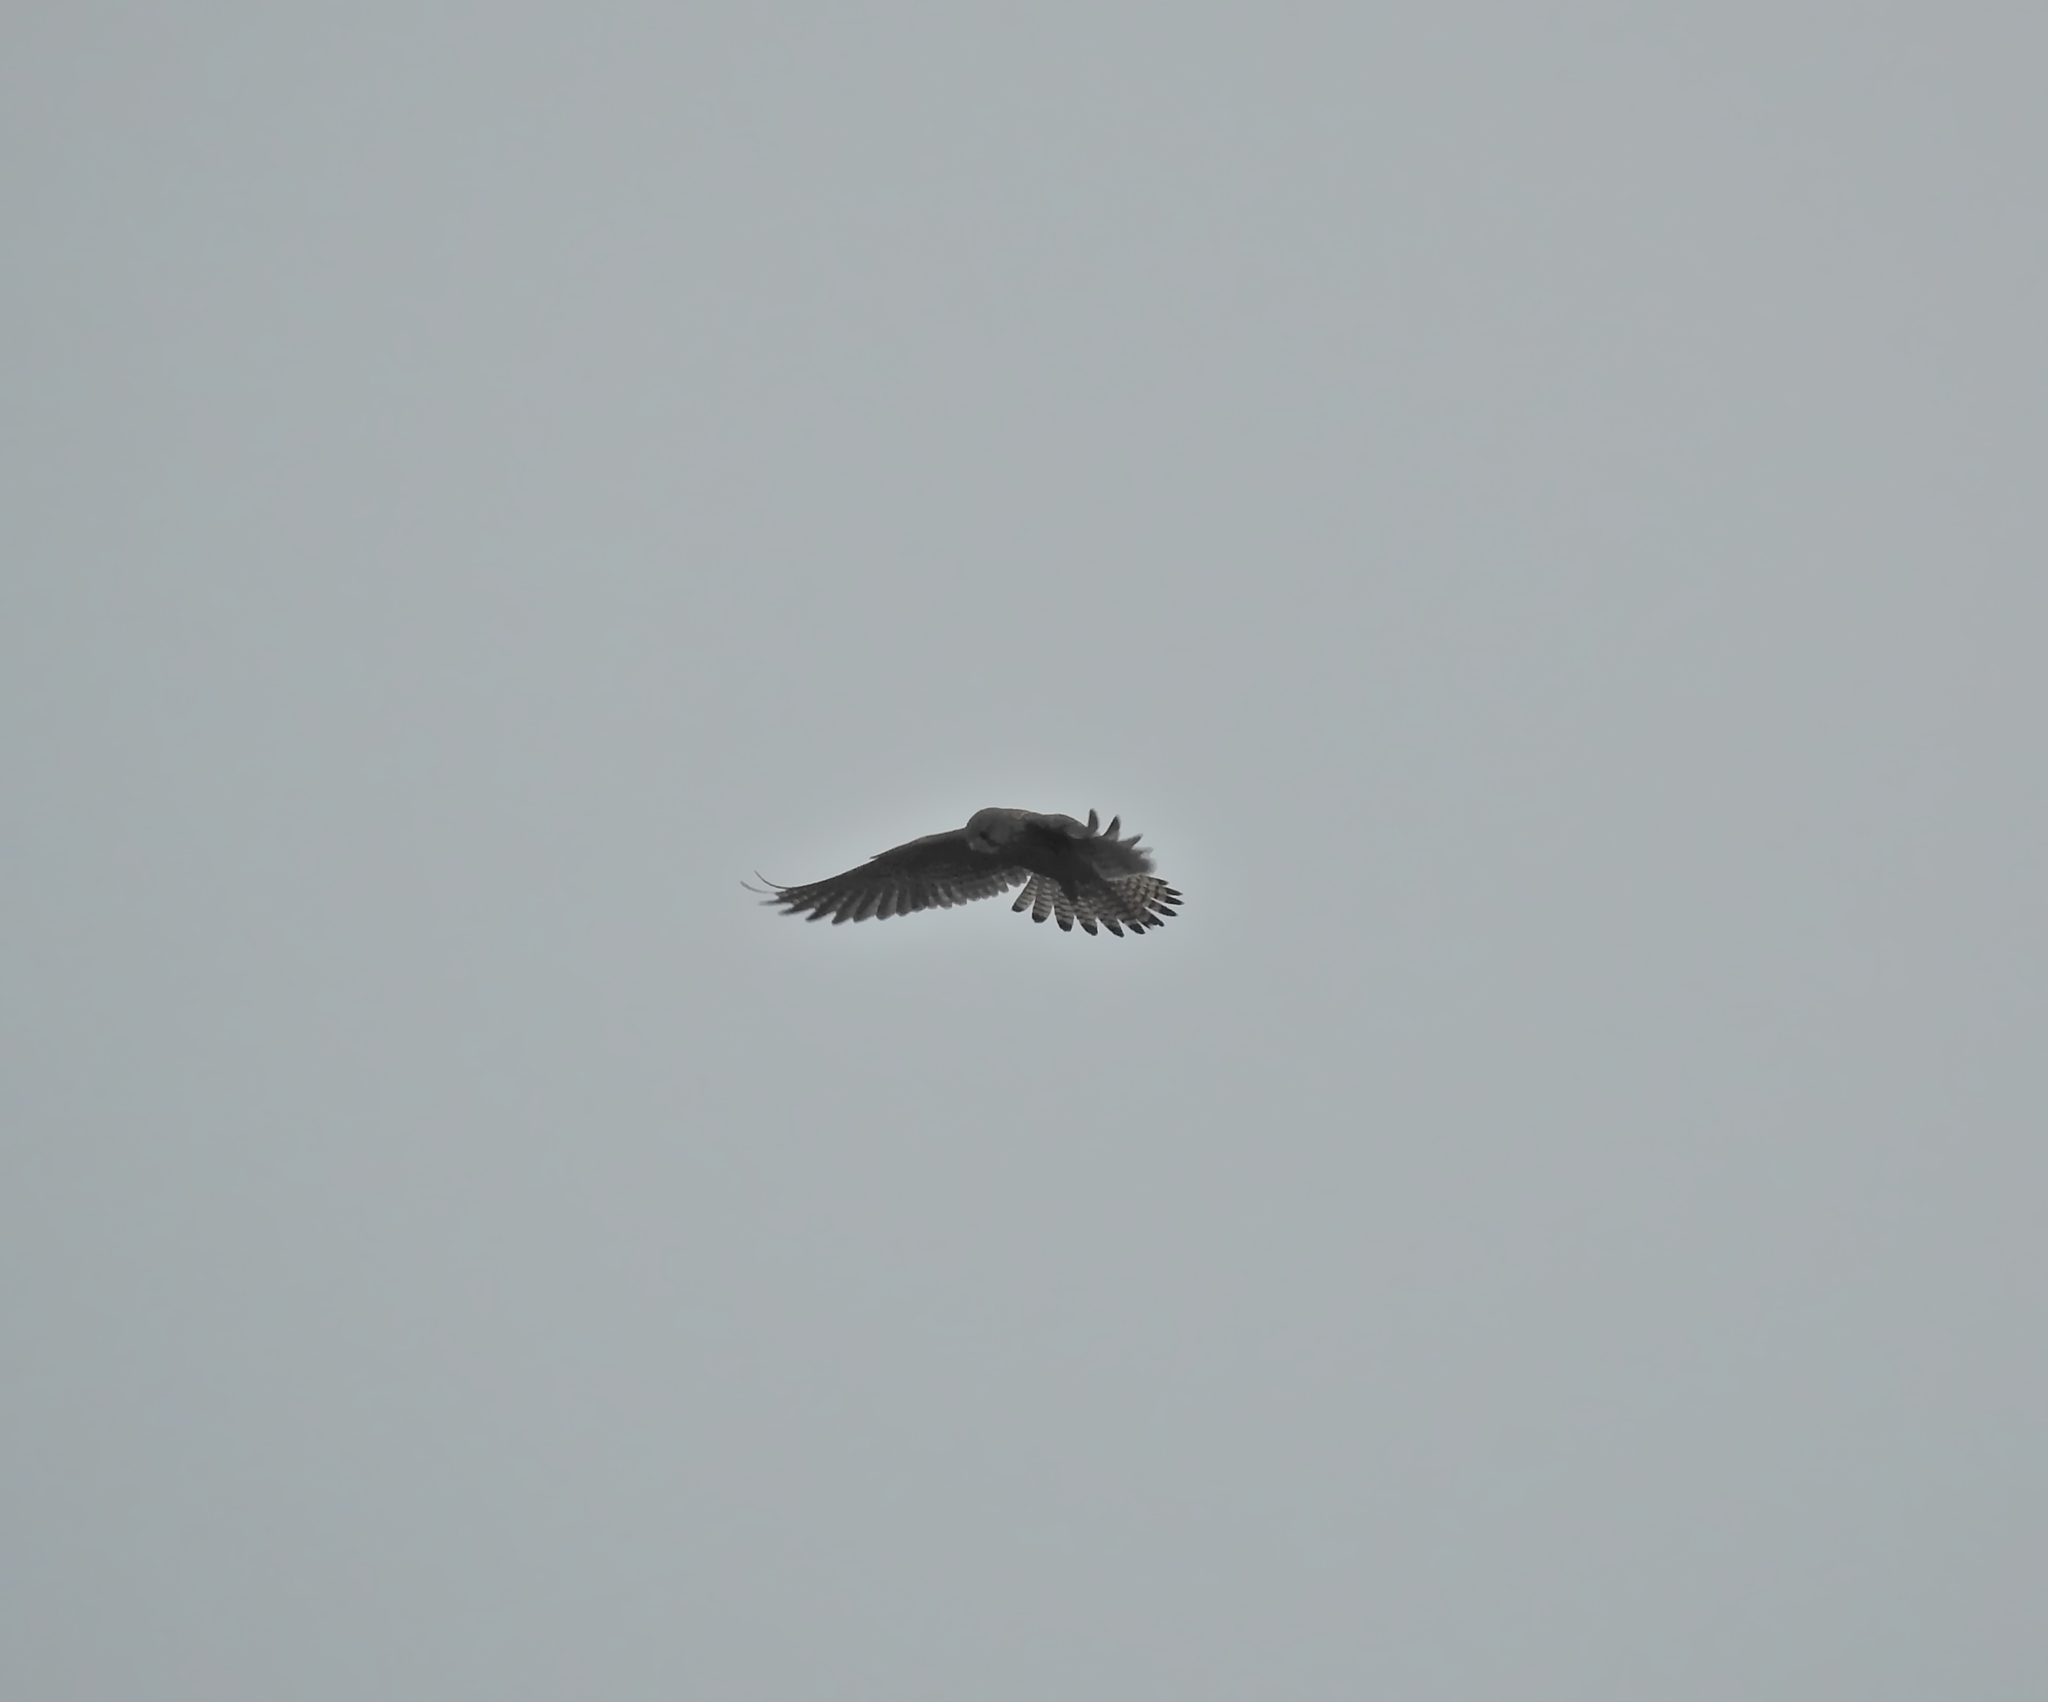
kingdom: Animalia
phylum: Chordata
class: Aves
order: Falconiformes
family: Falconidae
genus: Falco
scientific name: Falco tinnunculus
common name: Common kestrel
